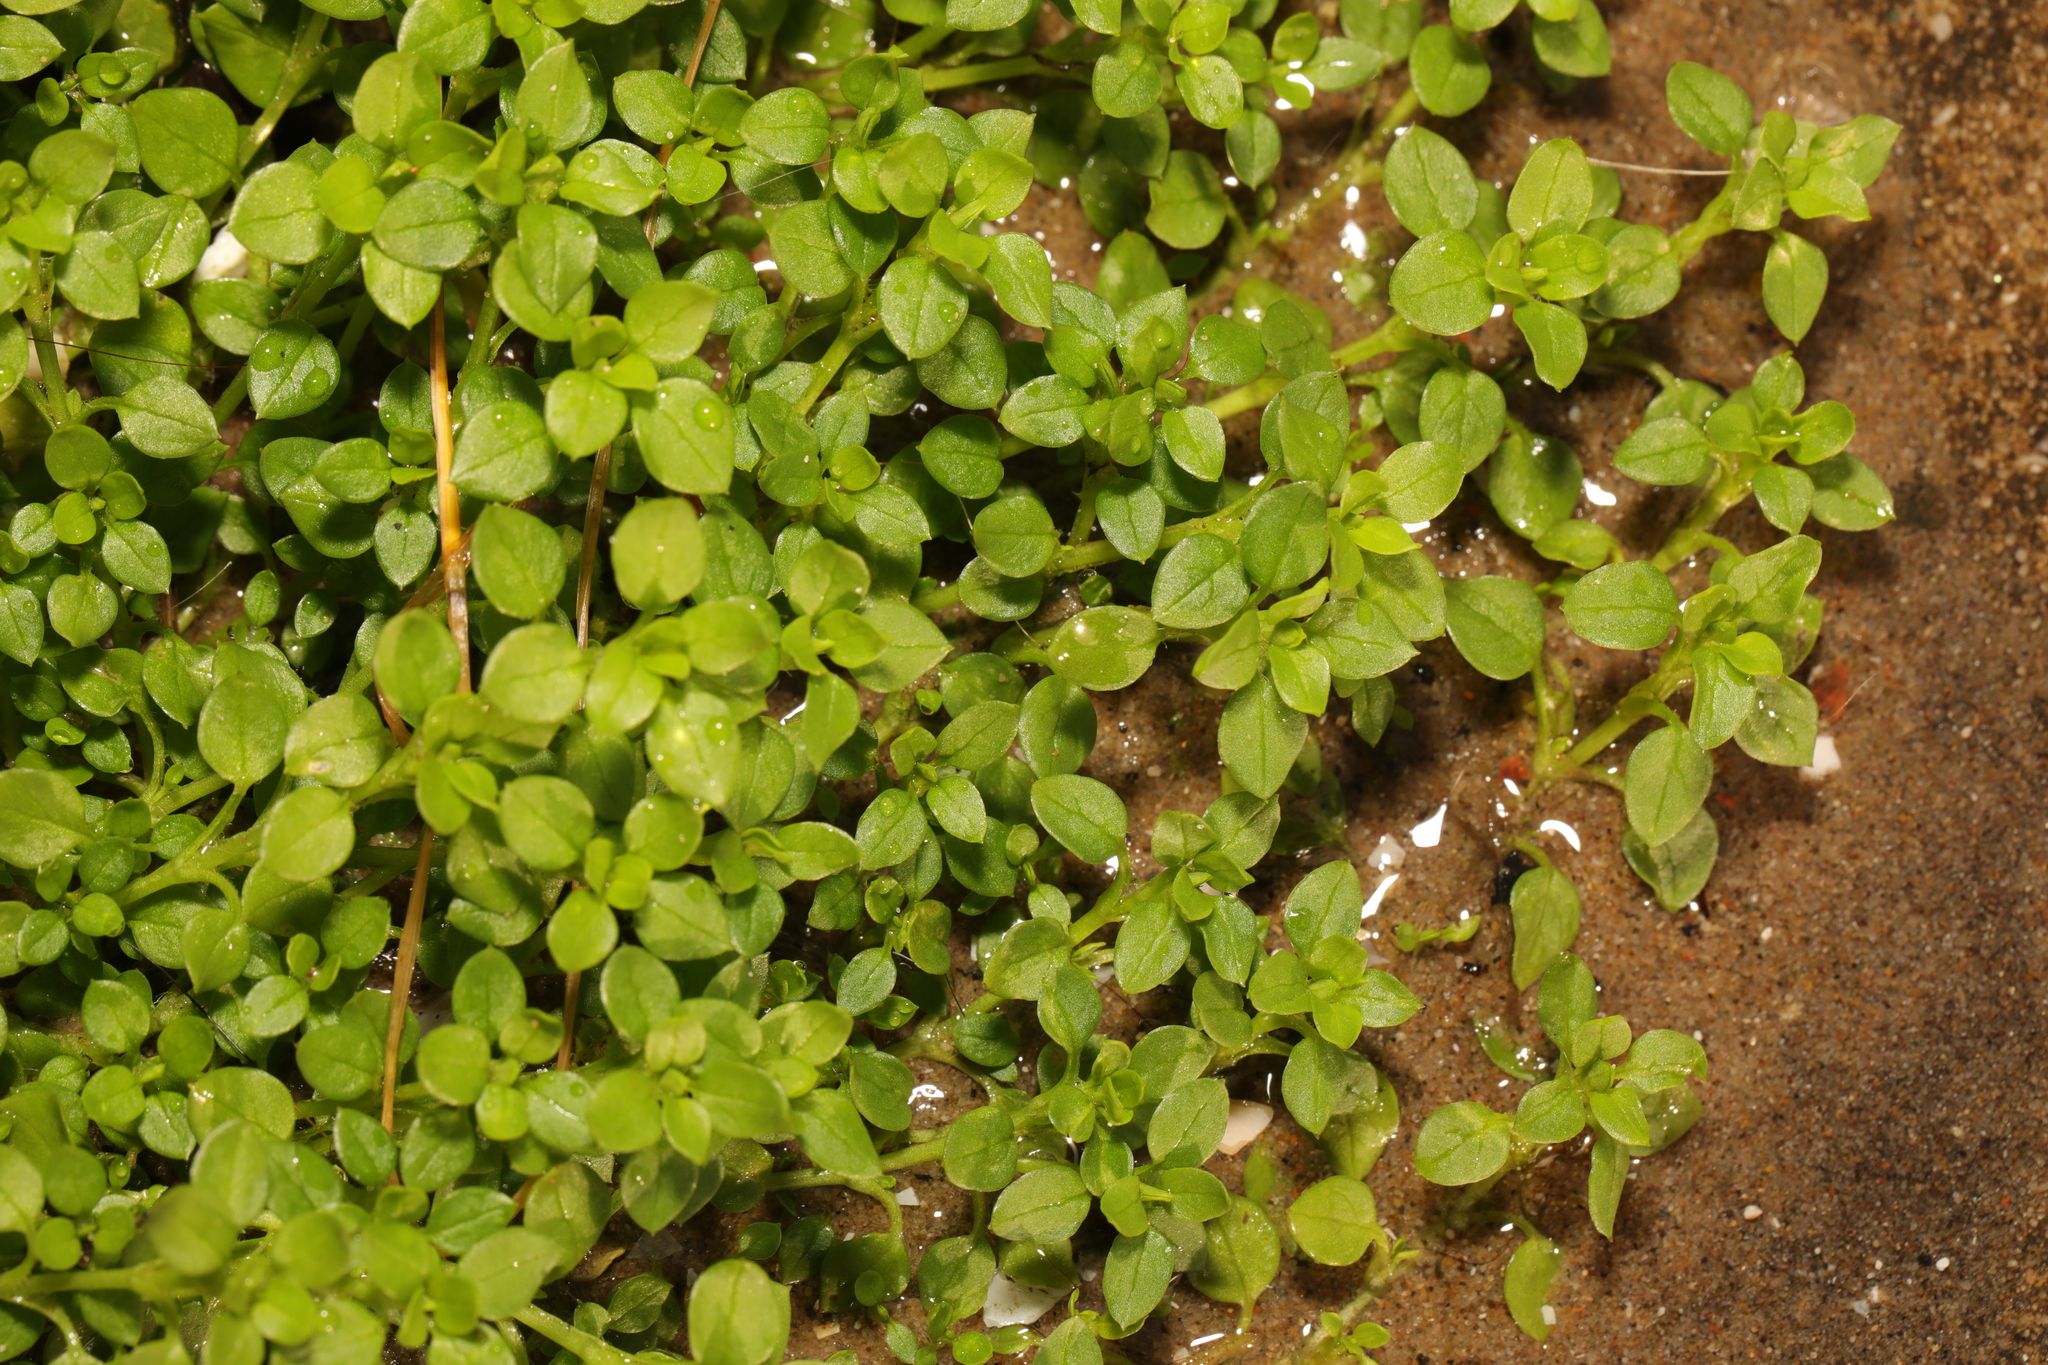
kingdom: Plantae
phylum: Tracheophyta
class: Magnoliopsida
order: Caryophyllales
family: Caryophyllaceae
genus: Stellaria
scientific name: Stellaria media
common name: Common chickweed
